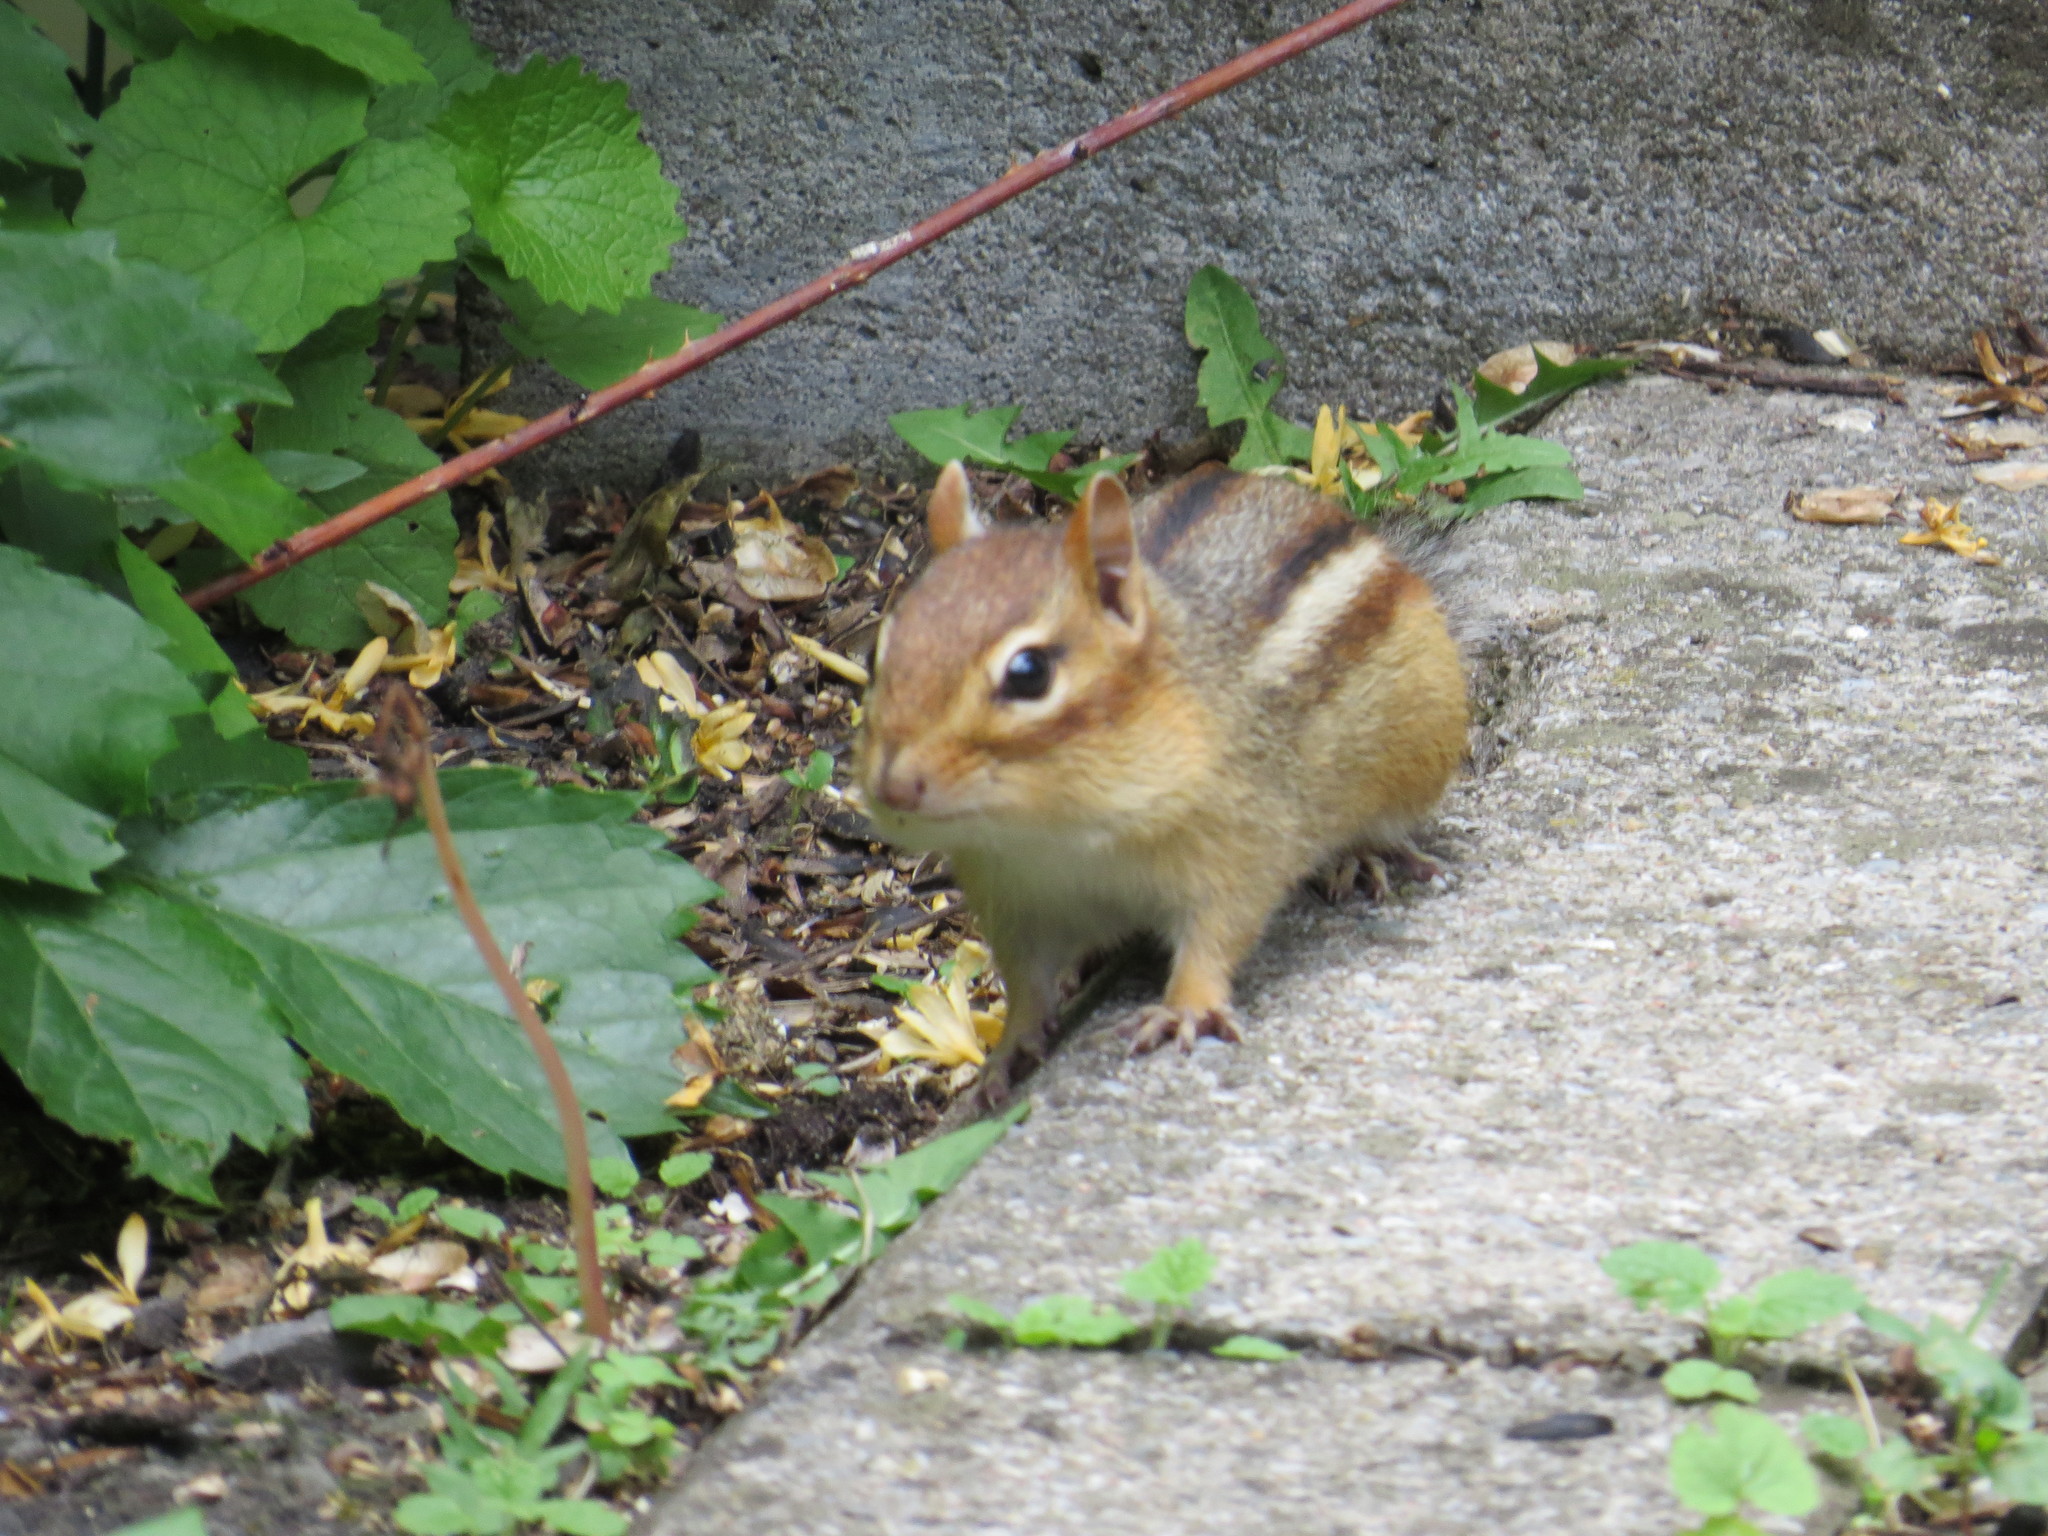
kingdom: Animalia
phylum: Chordata
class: Mammalia
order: Rodentia
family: Sciuridae
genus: Tamias
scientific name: Tamias striatus
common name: Eastern chipmunk
